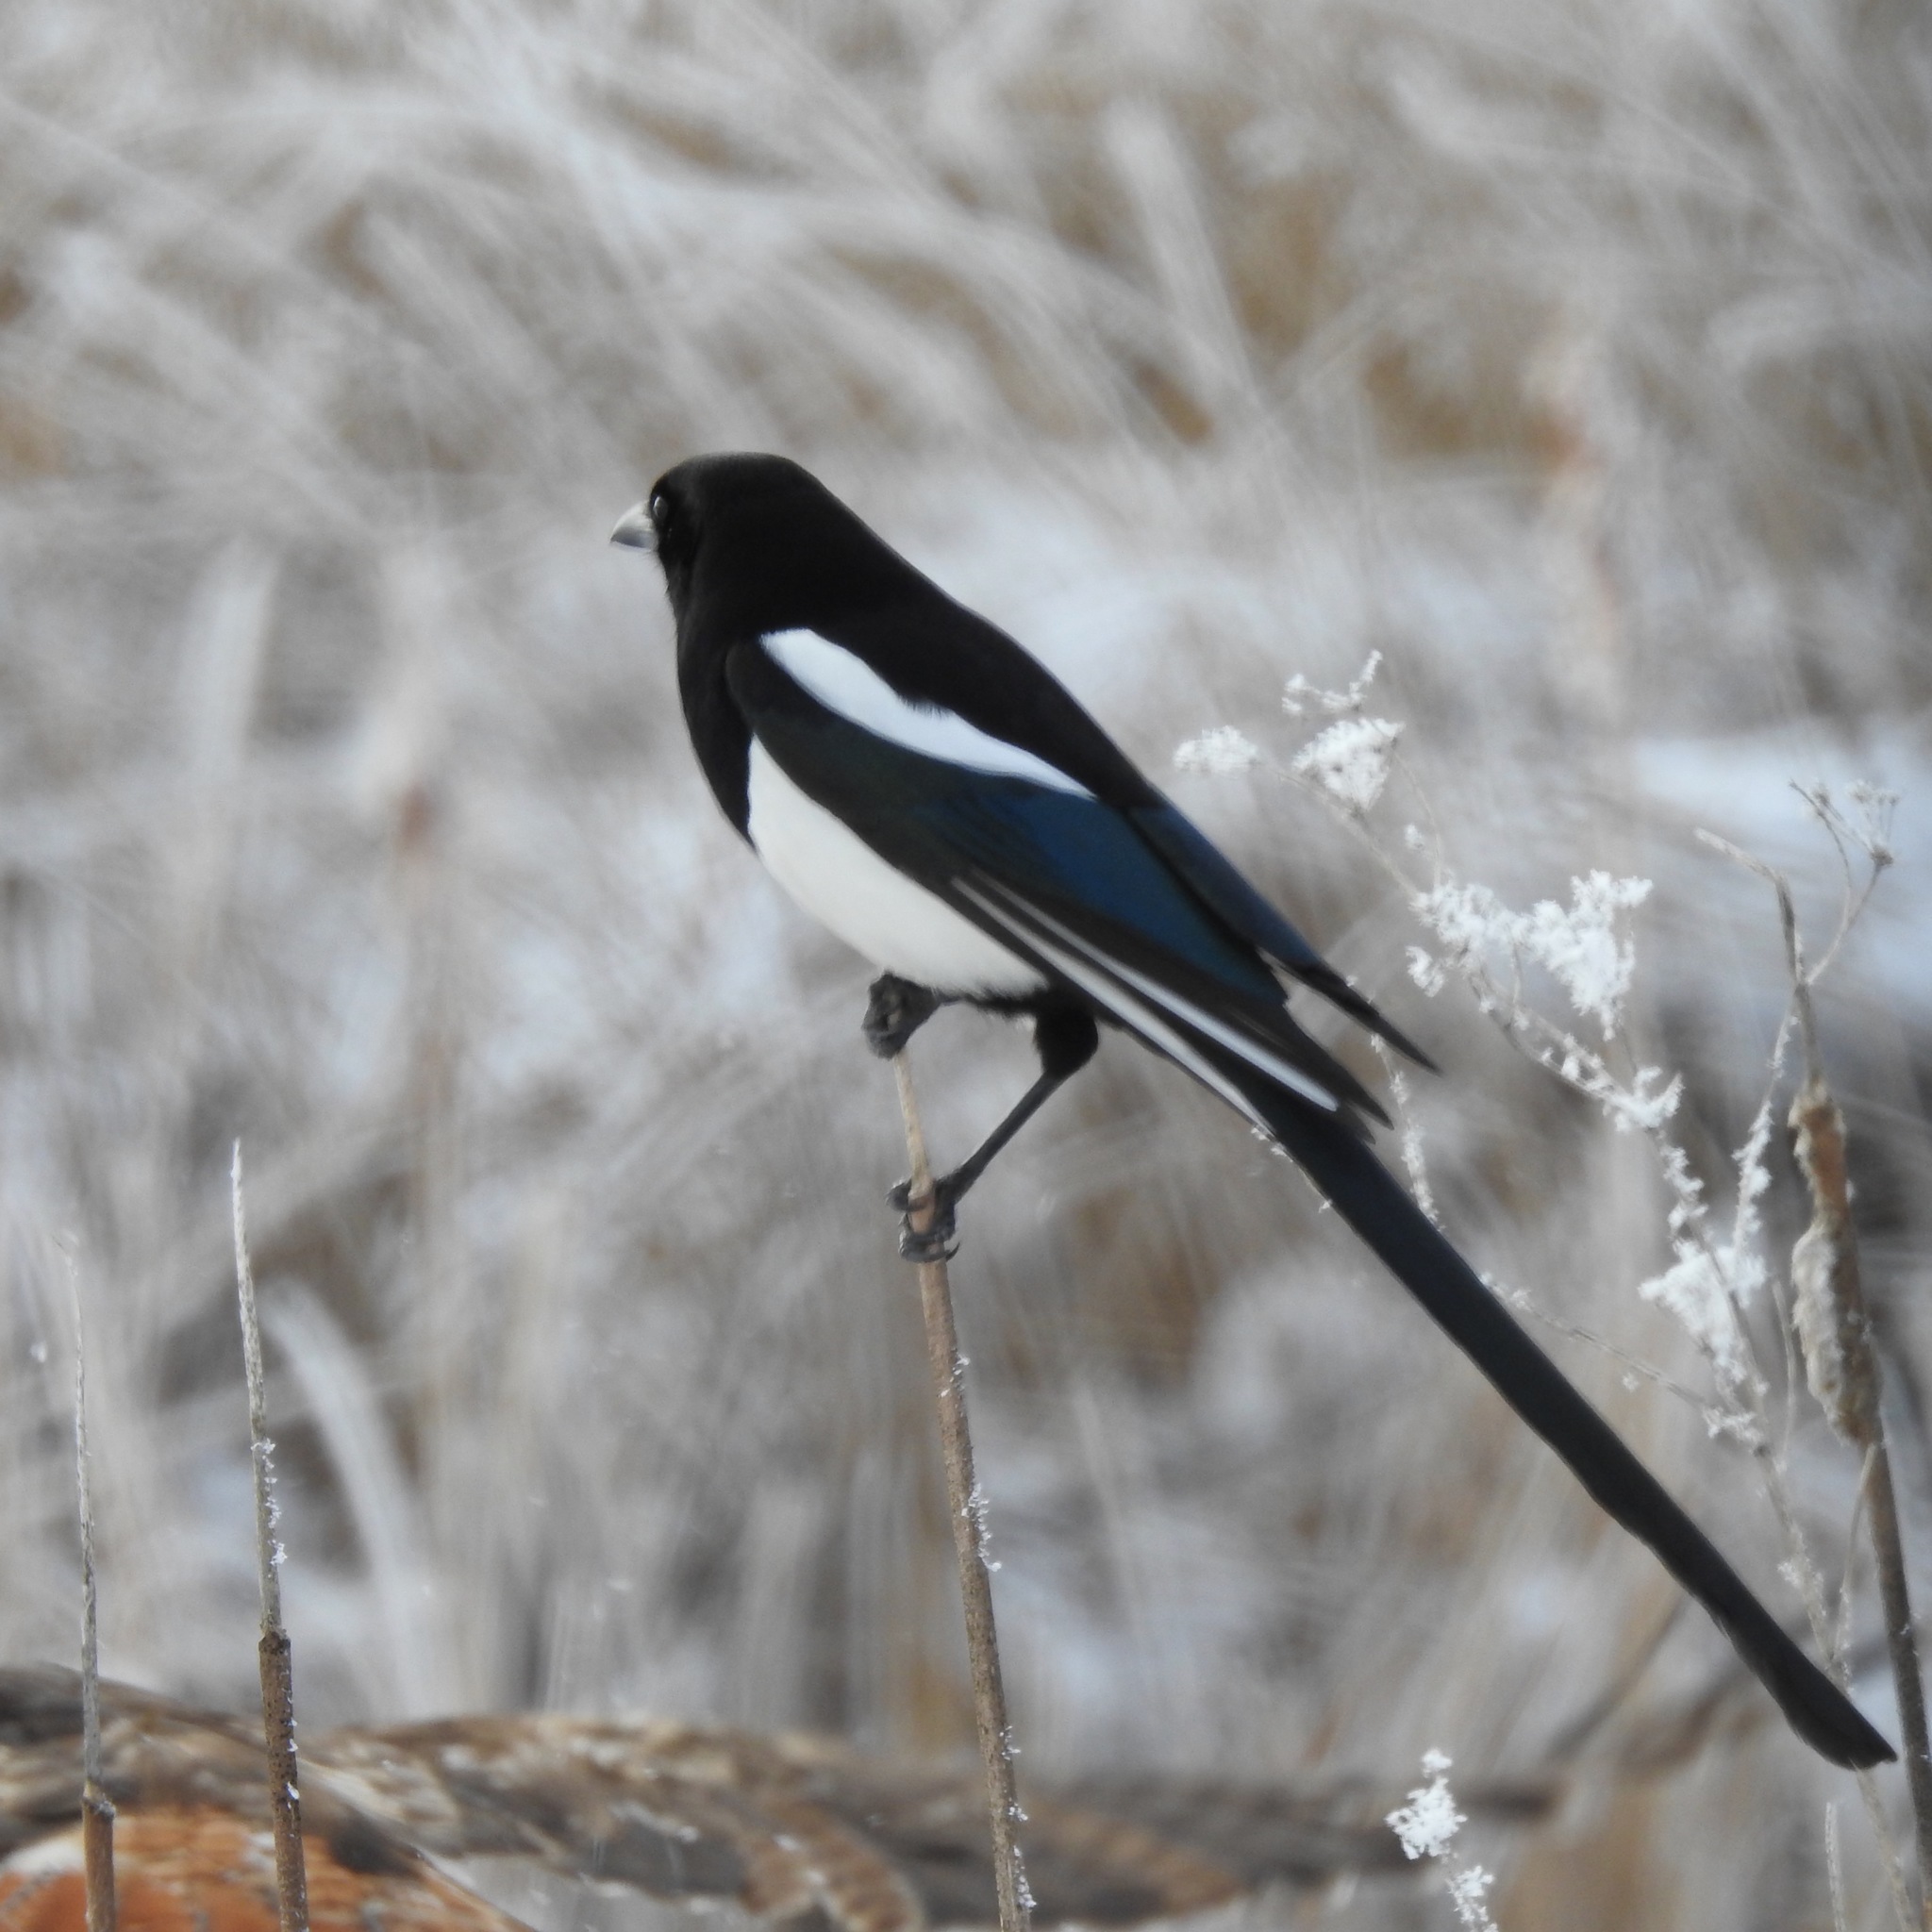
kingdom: Animalia
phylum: Chordata
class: Aves
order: Passeriformes
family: Corvidae
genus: Pica
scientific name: Pica hudsonia
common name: Black-billed magpie
